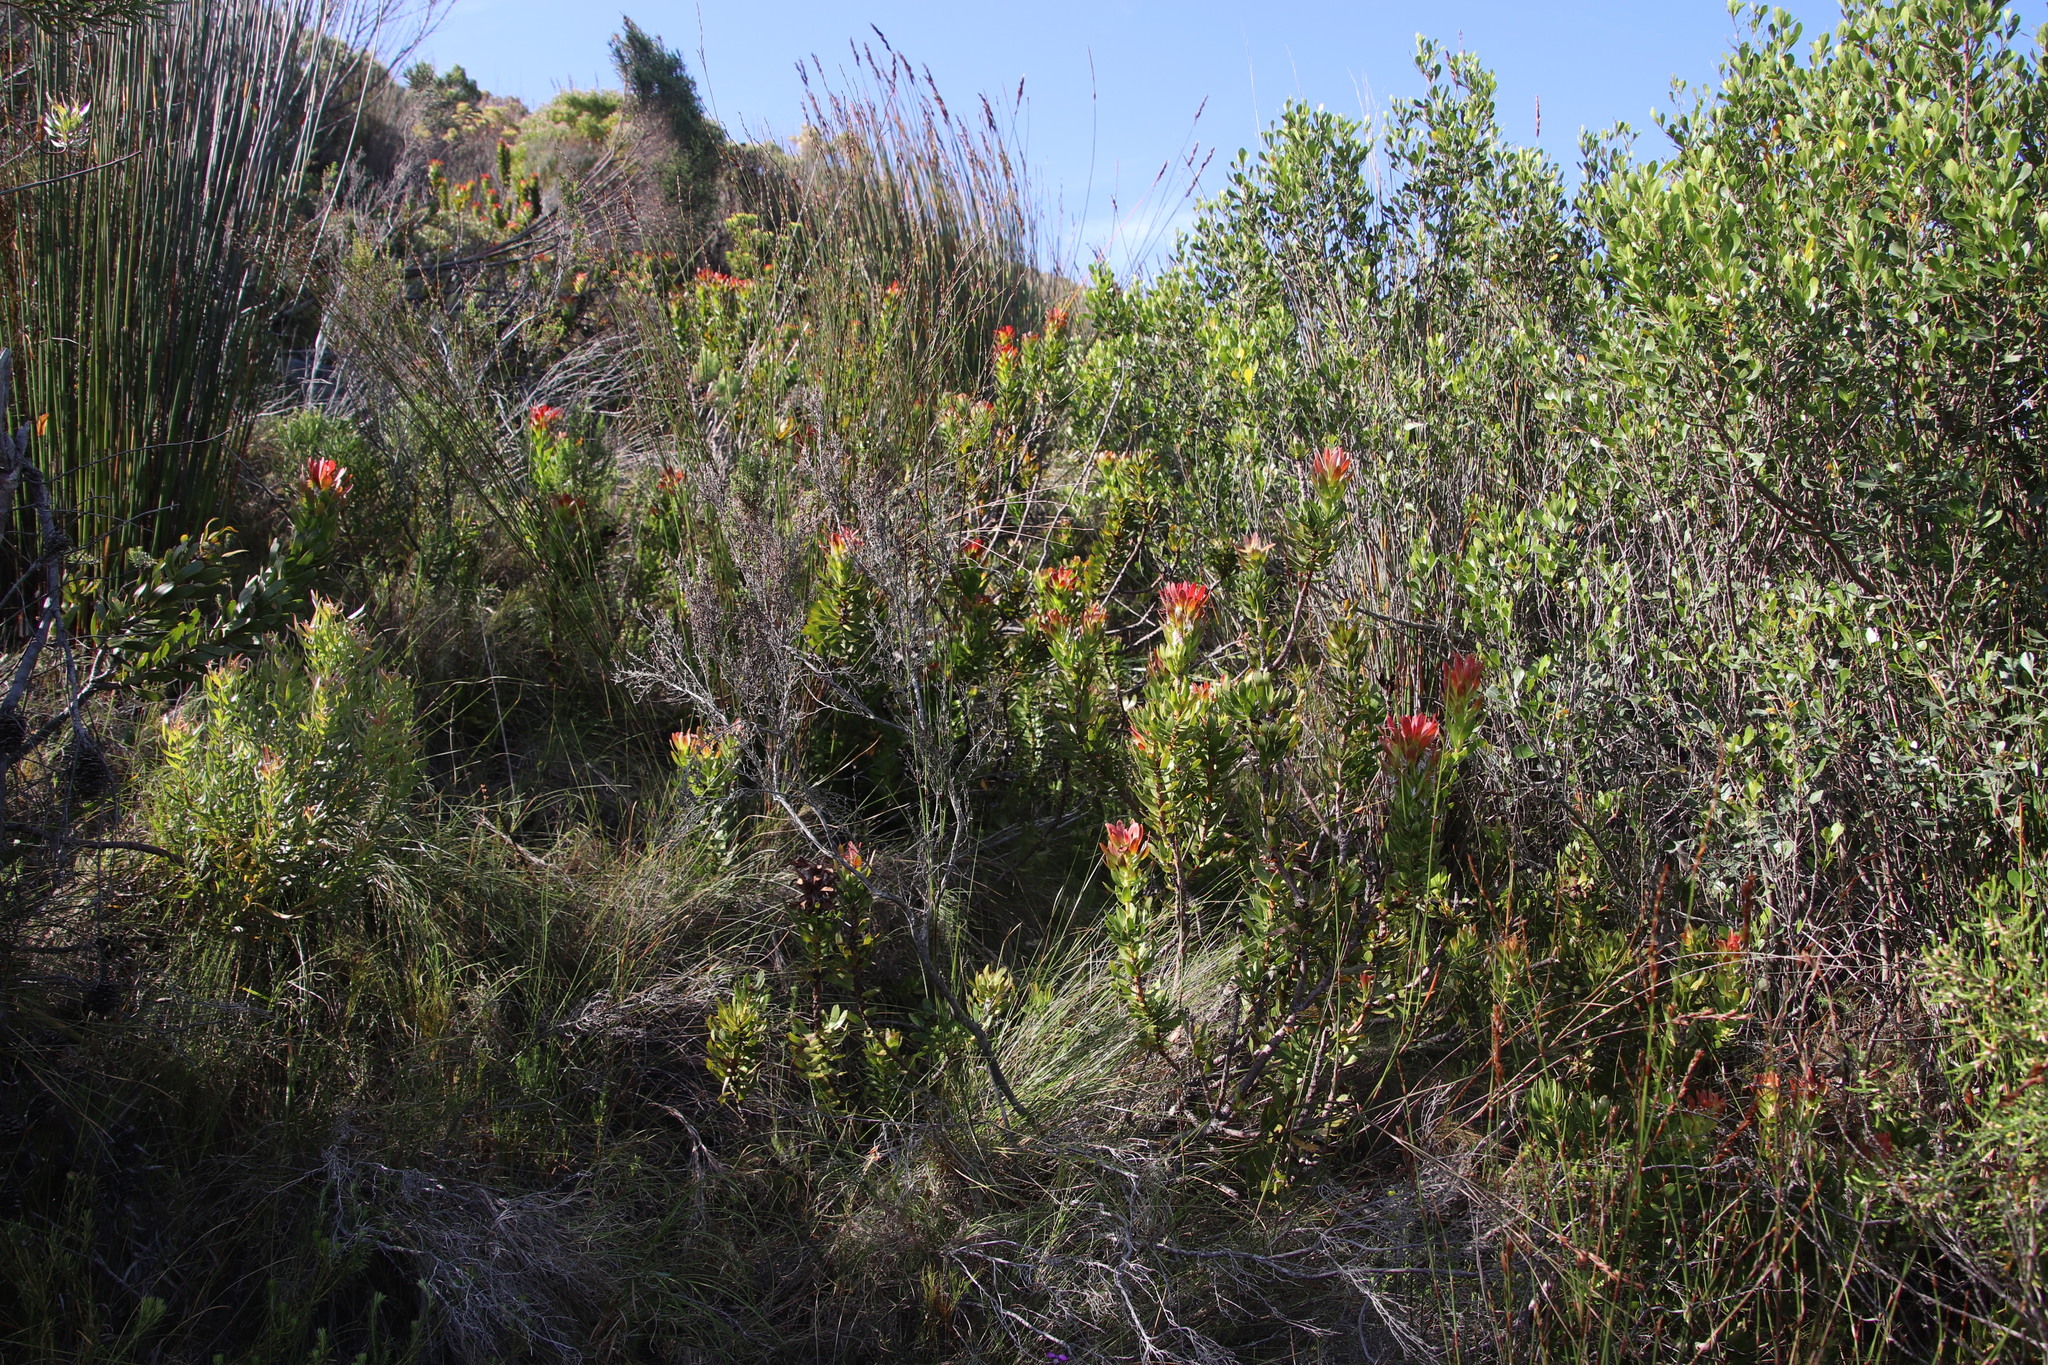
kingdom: Plantae
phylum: Tracheophyta
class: Magnoliopsida
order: Proteales
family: Proteaceae
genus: Mimetes
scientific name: Mimetes cucullatus
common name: Common pagoda
